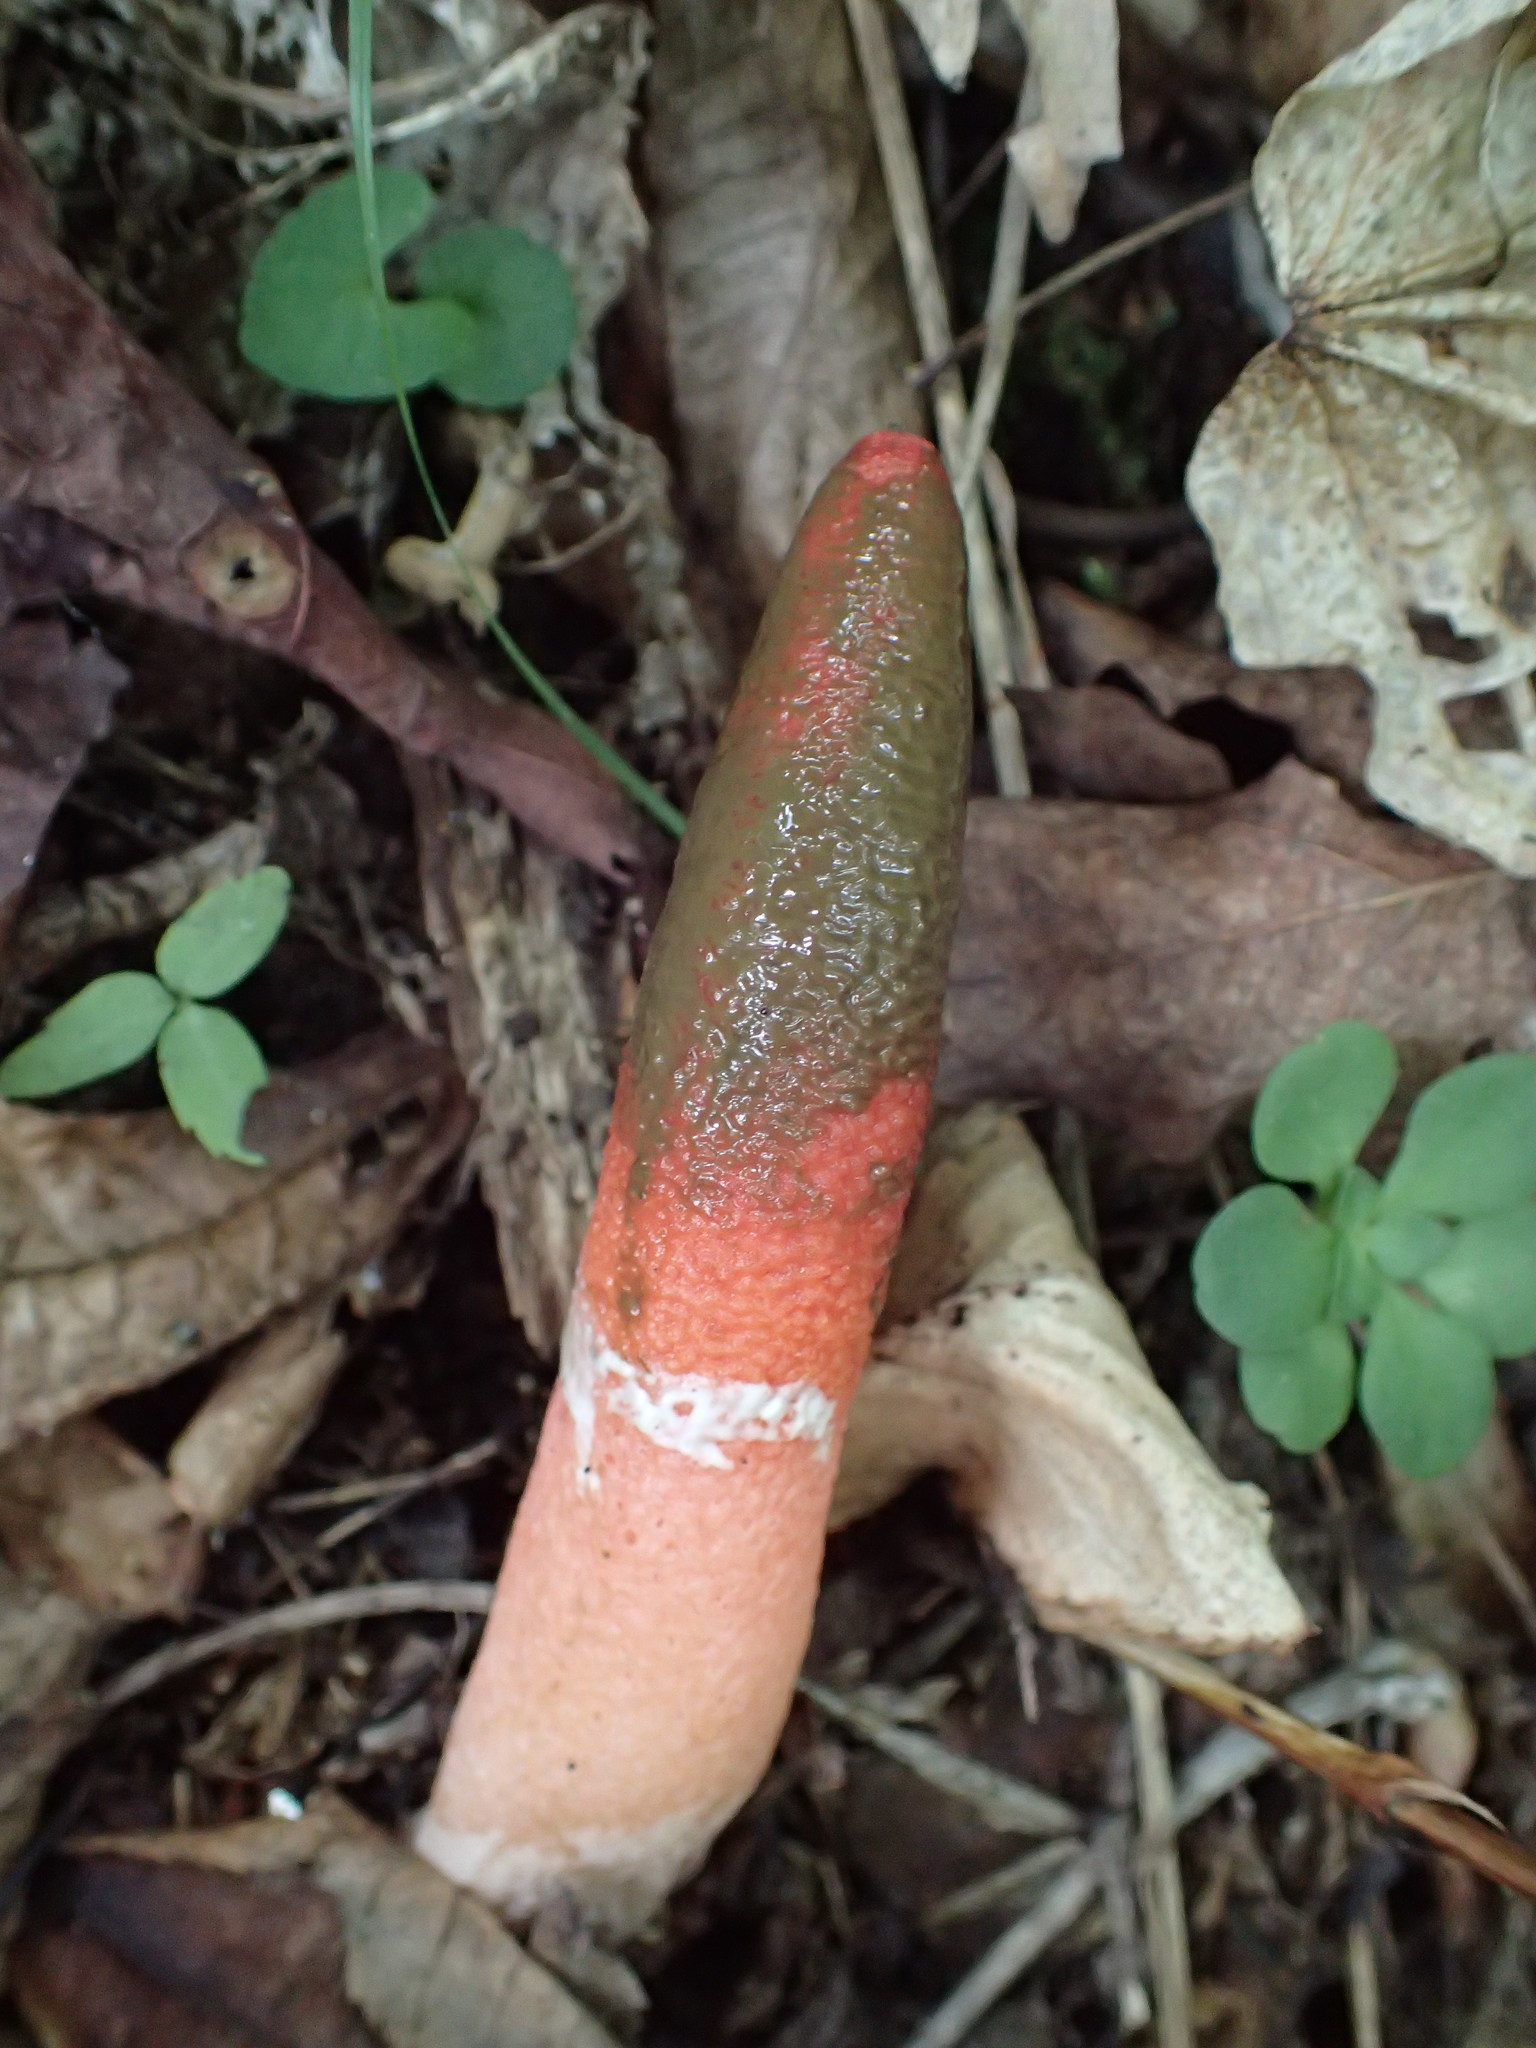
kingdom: Fungi
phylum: Basidiomycota
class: Agaricomycetes
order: Phallales
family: Phallaceae
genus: Mutinus
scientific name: Mutinus elegans
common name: Devil's dipstick
